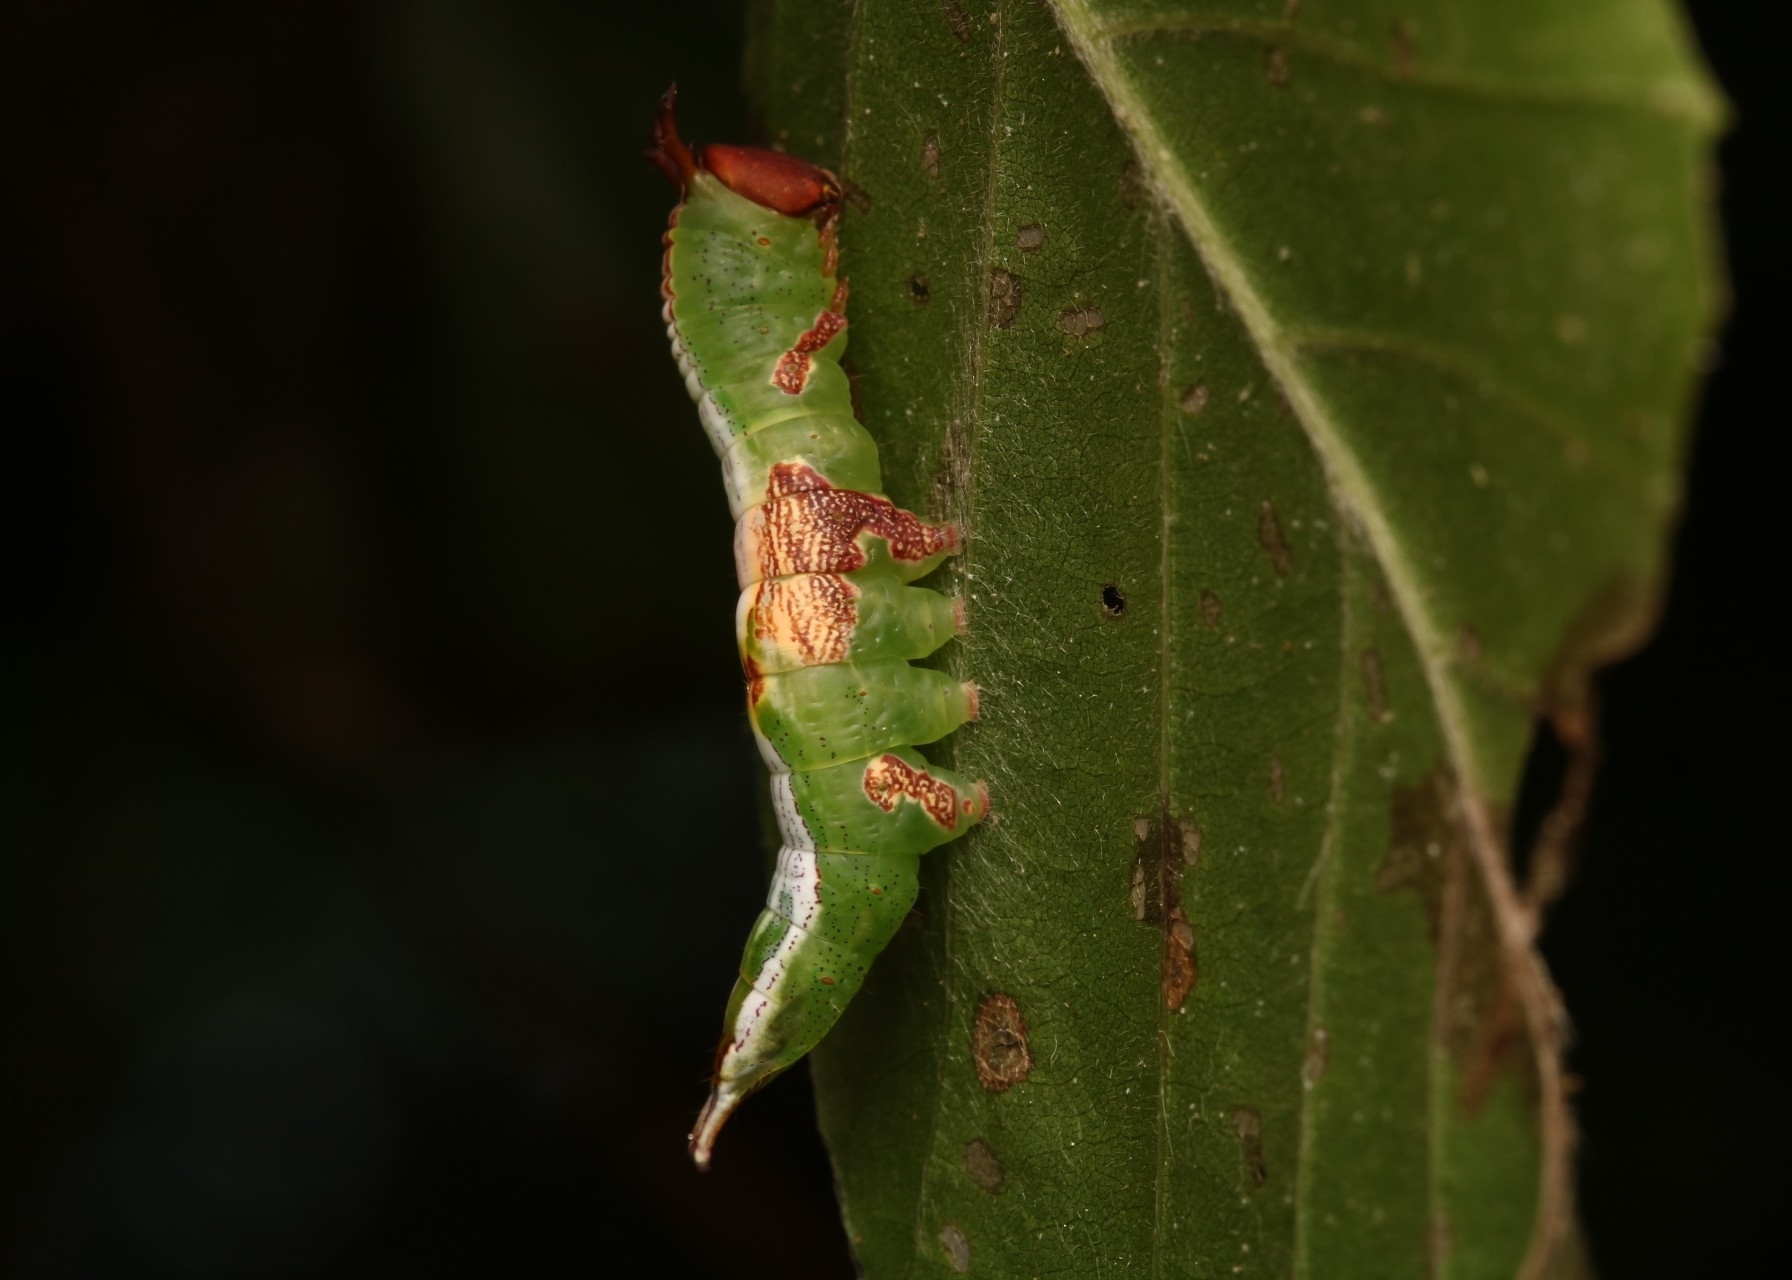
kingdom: Animalia
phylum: Arthropoda
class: Insecta
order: Lepidoptera
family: Notodontidae
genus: Disphragis
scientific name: Disphragis Cecrita biundata
